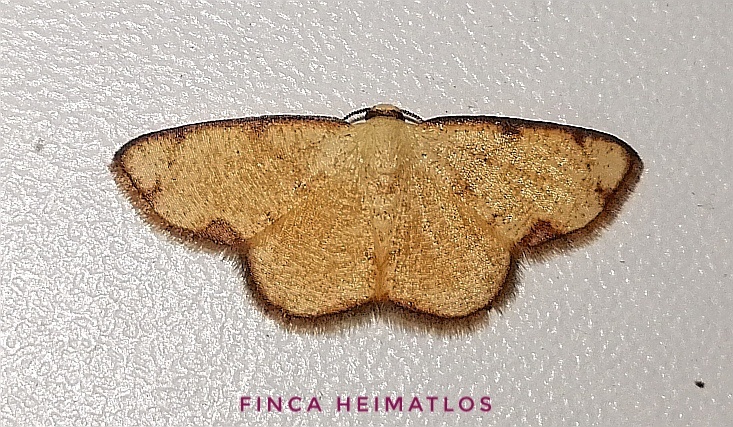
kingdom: Animalia
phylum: Arthropoda
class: Insecta
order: Lepidoptera
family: Geometridae
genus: Nematocampa
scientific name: Nematocampa confusa
